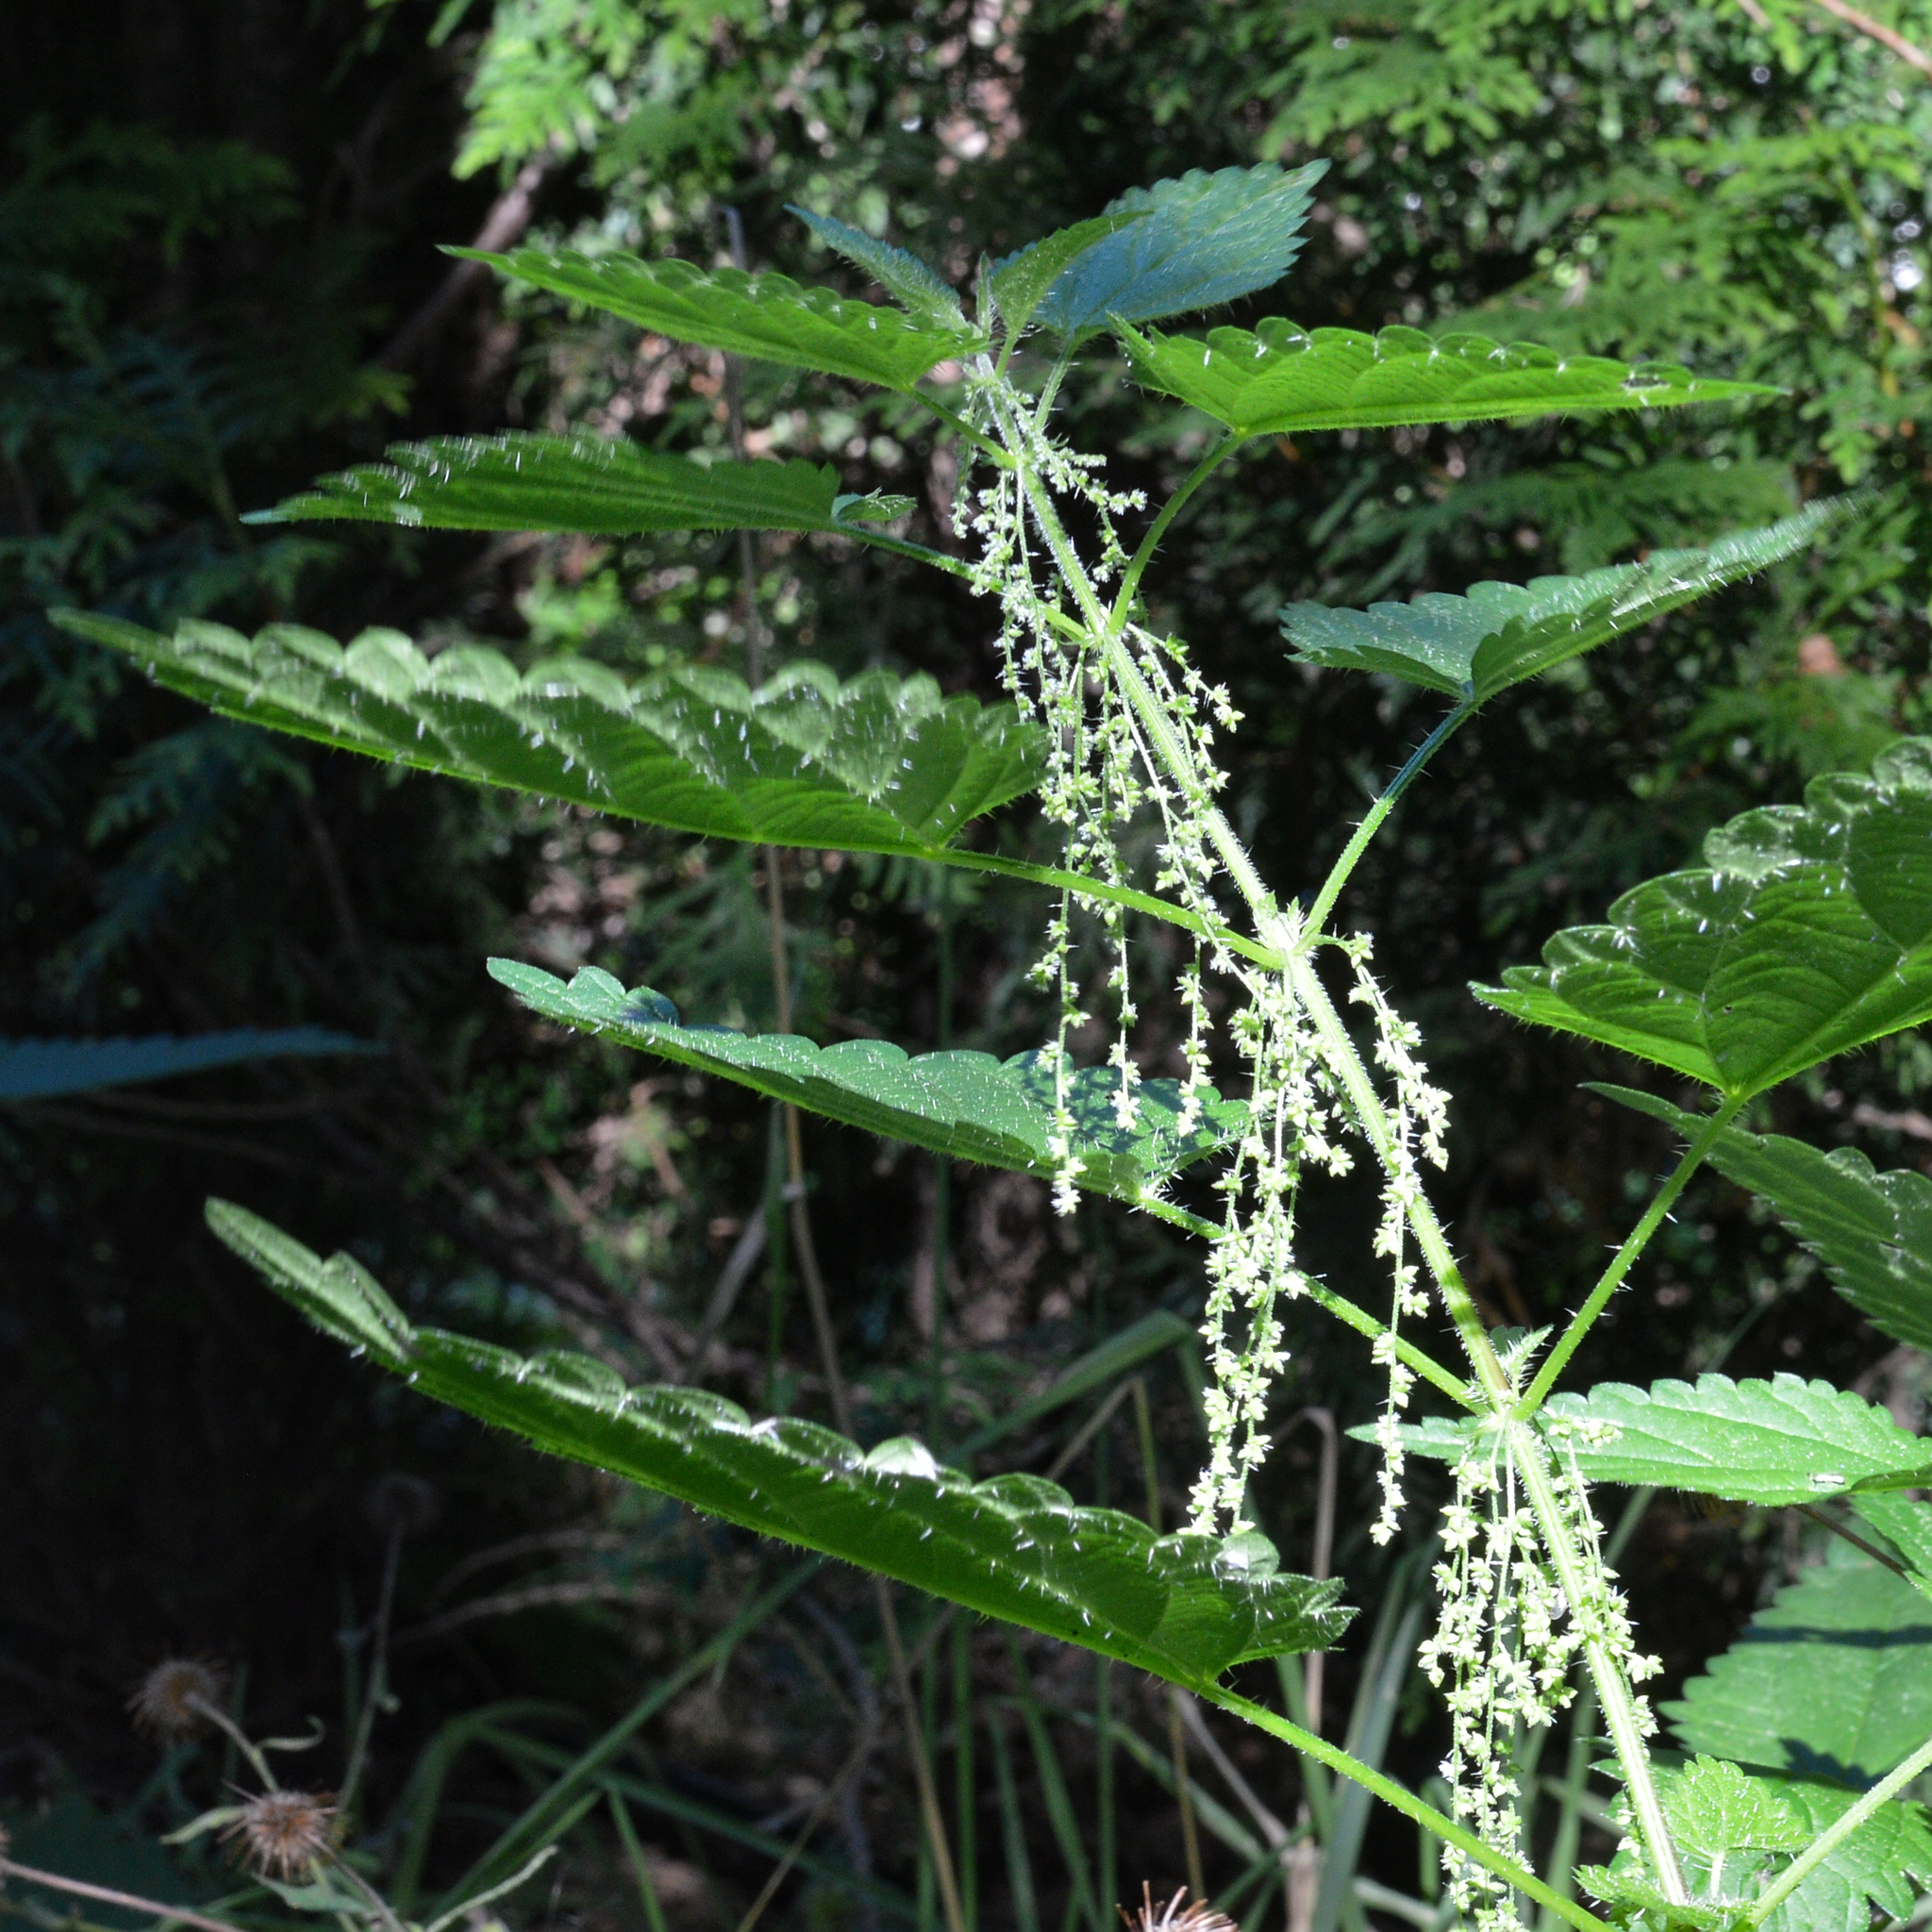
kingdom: Plantae
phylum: Tracheophyta
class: Magnoliopsida
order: Rosales
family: Urticaceae
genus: Urtica
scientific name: Urtica dioica
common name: Common nettle
